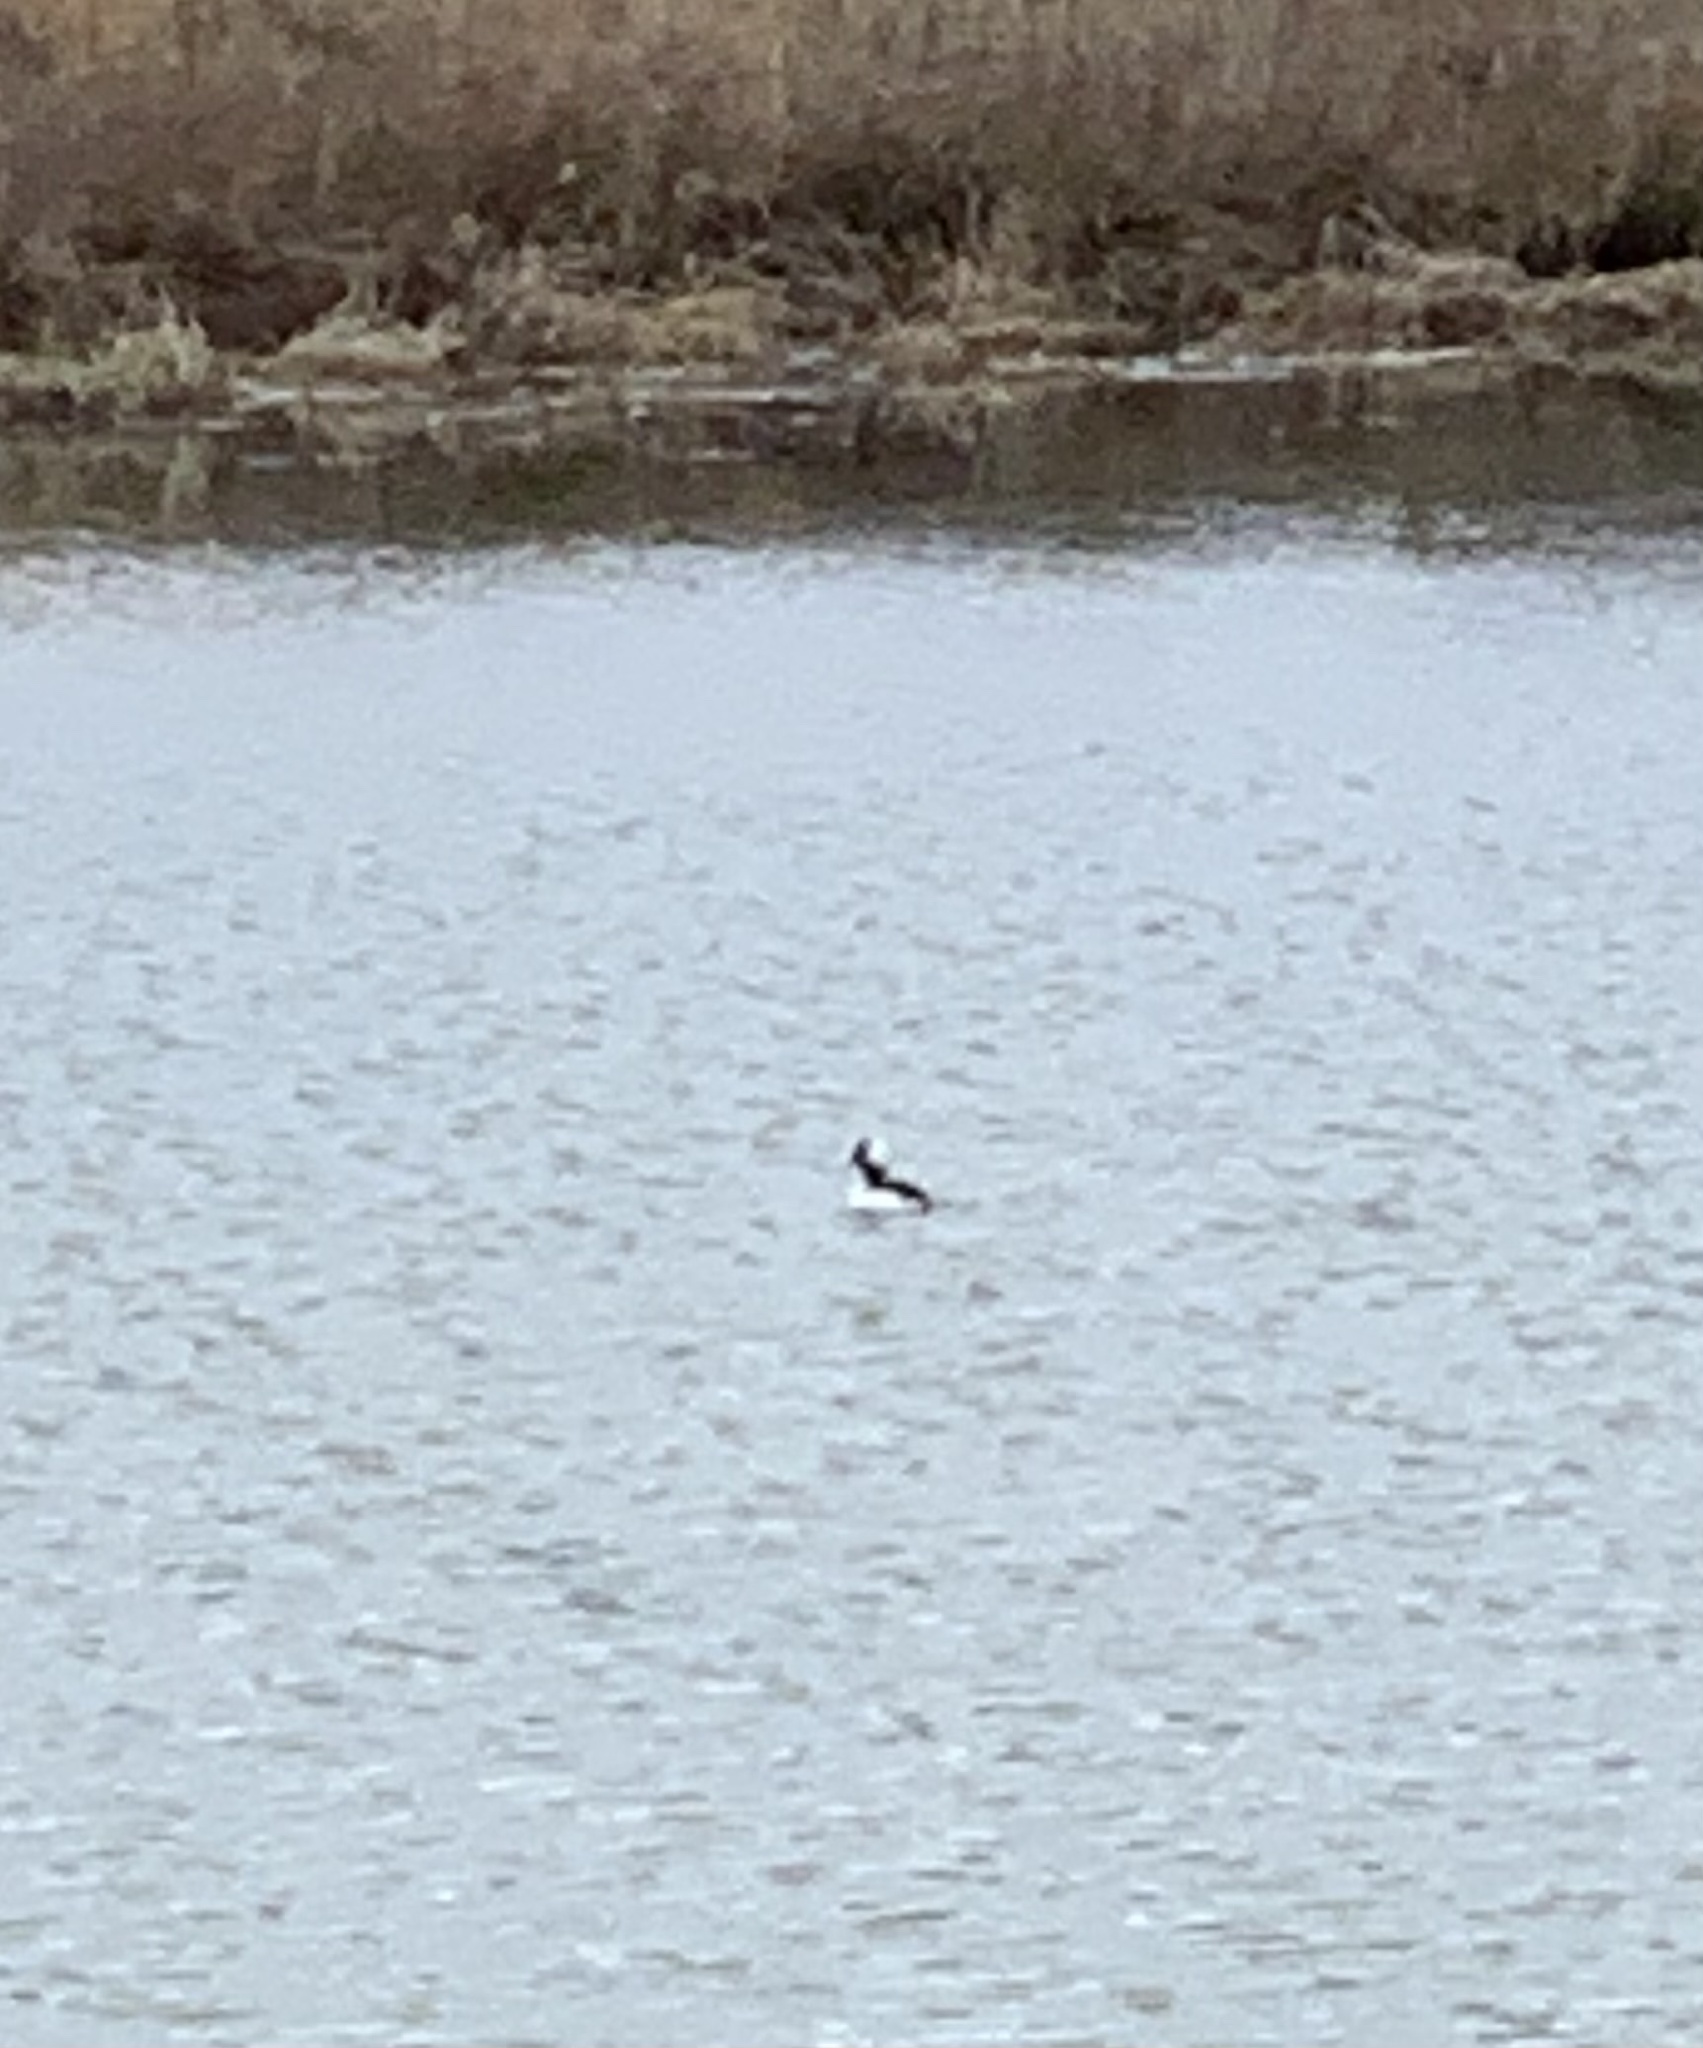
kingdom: Animalia
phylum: Chordata
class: Aves
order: Anseriformes
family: Anatidae
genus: Bucephala
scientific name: Bucephala albeola
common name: Bufflehead
